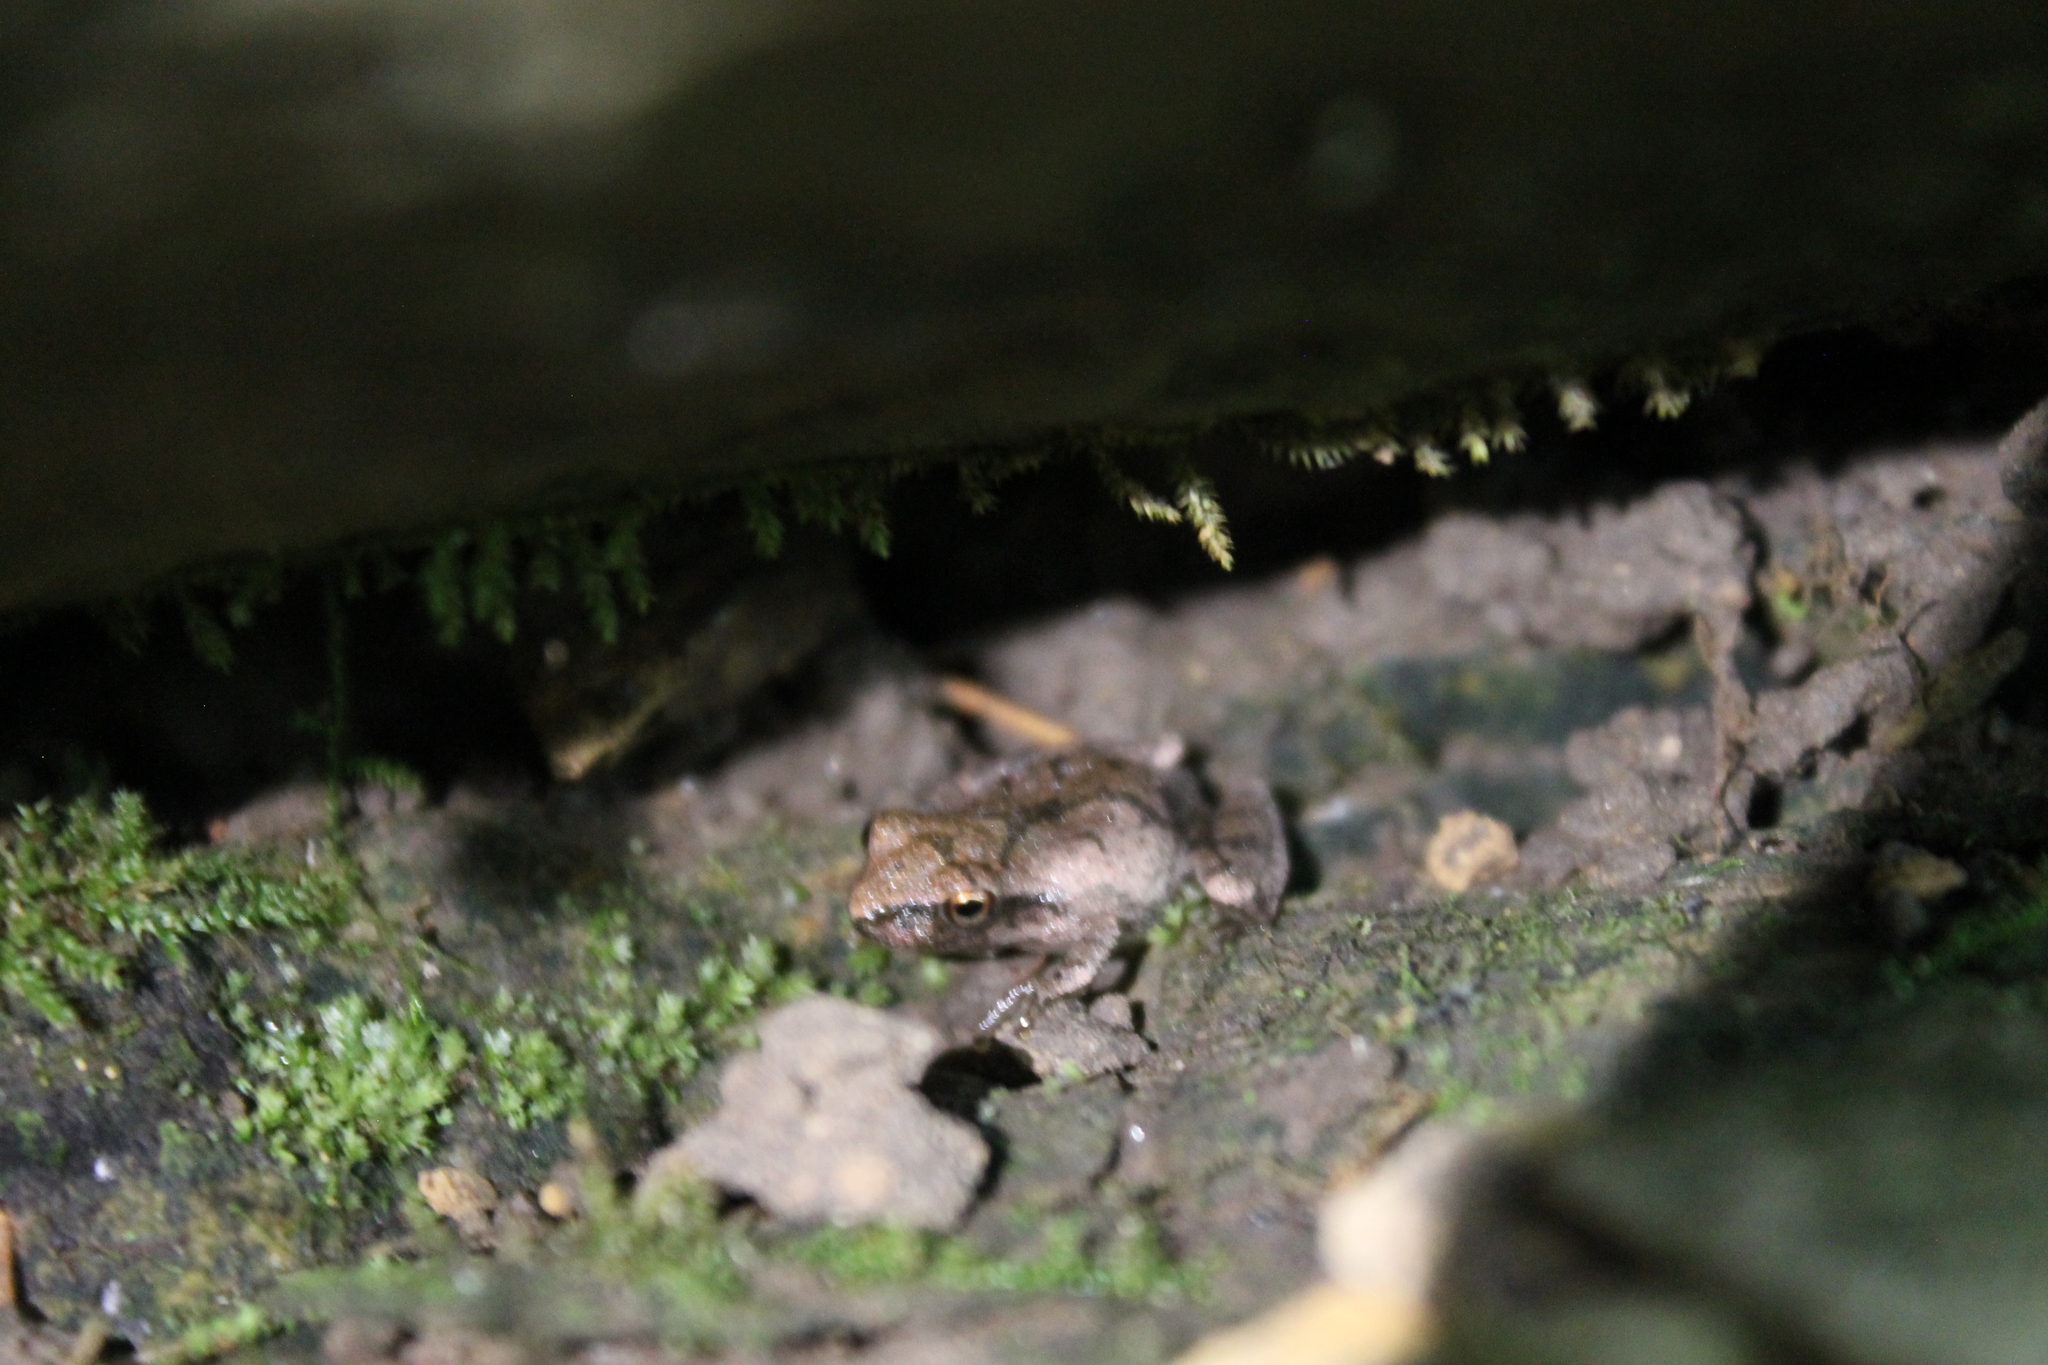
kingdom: Animalia
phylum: Chordata
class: Amphibia
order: Anura
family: Hylidae
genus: Pseudacris
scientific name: Pseudacris crucifer
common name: Spring peeper
